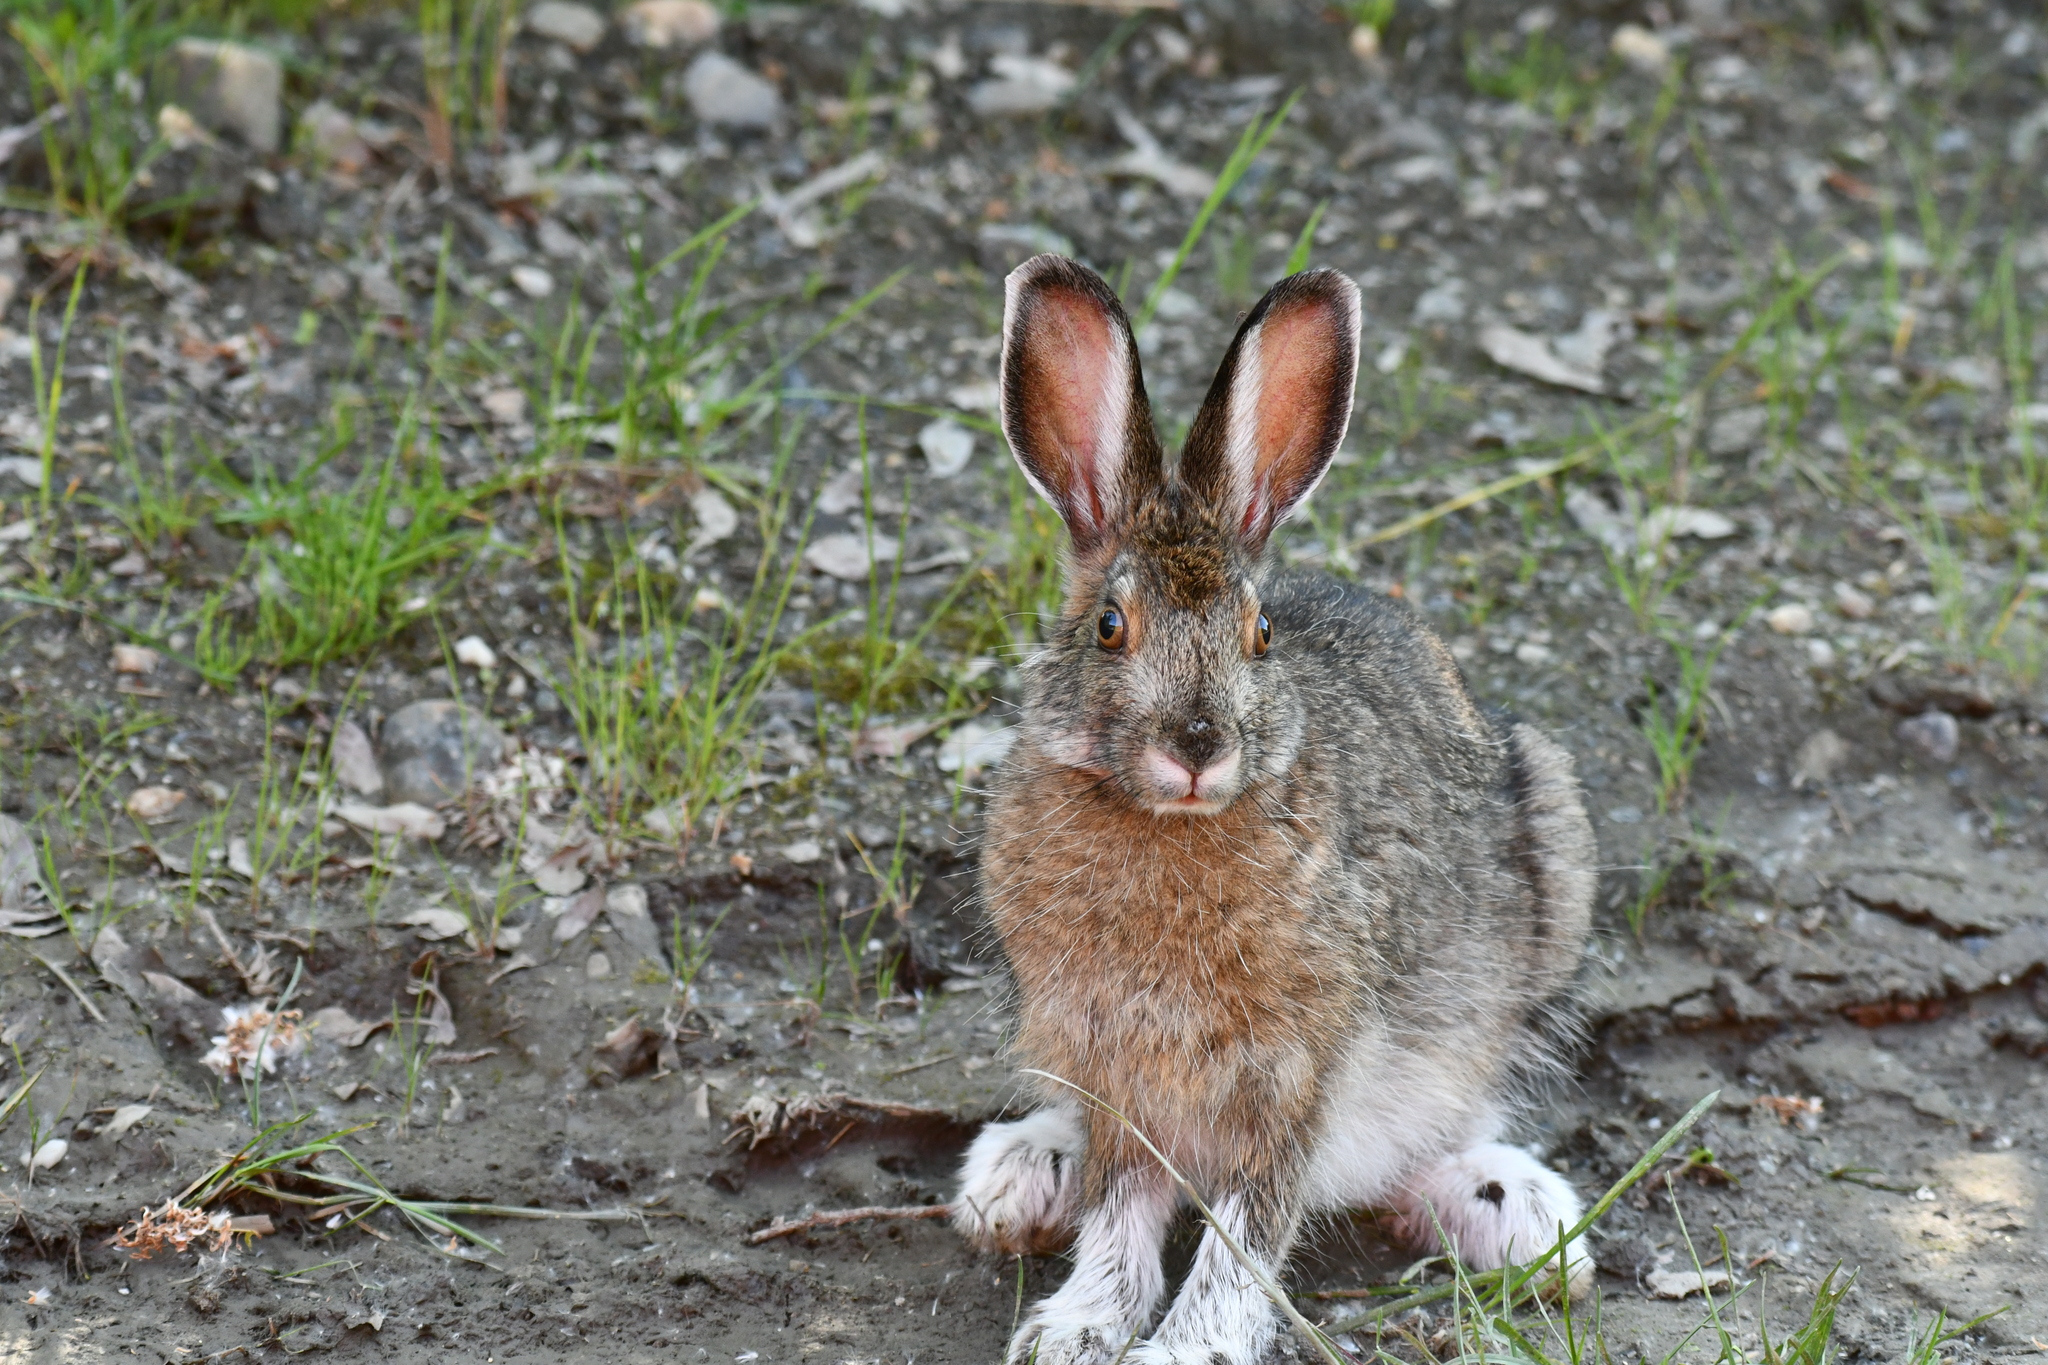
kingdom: Animalia
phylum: Chordata
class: Mammalia
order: Lagomorpha
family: Leporidae
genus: Lepus
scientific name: Lepus americanus
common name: Snowshoe hare
